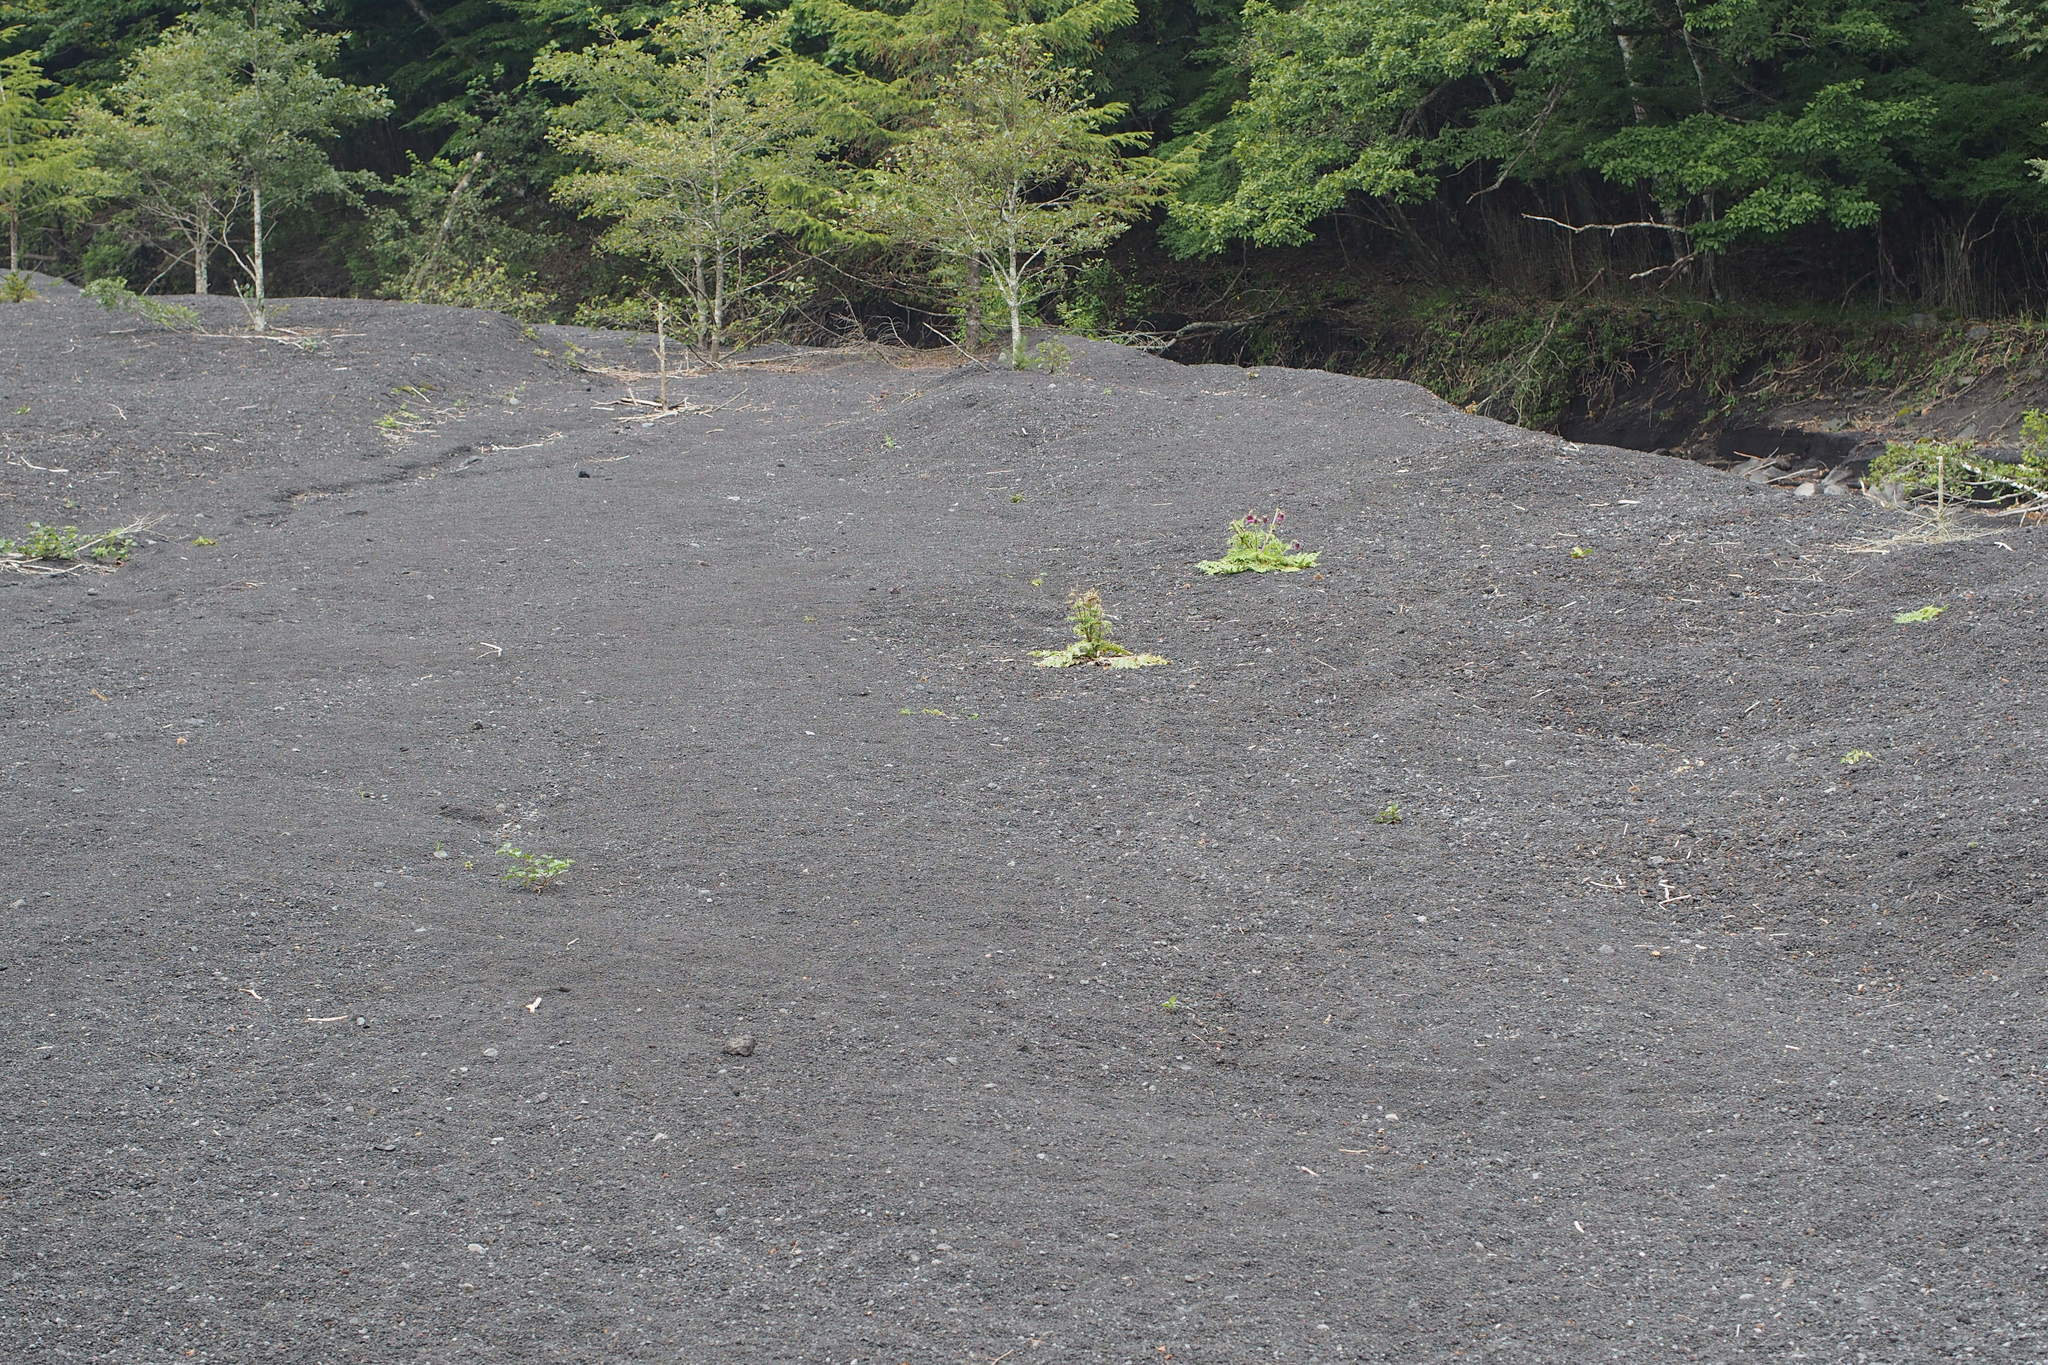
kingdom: Plantae
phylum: Tracheophyta
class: Magnoliopsida
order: Asterales
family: Asteraceae
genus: Cirsium
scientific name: Cirsium purpuratum
